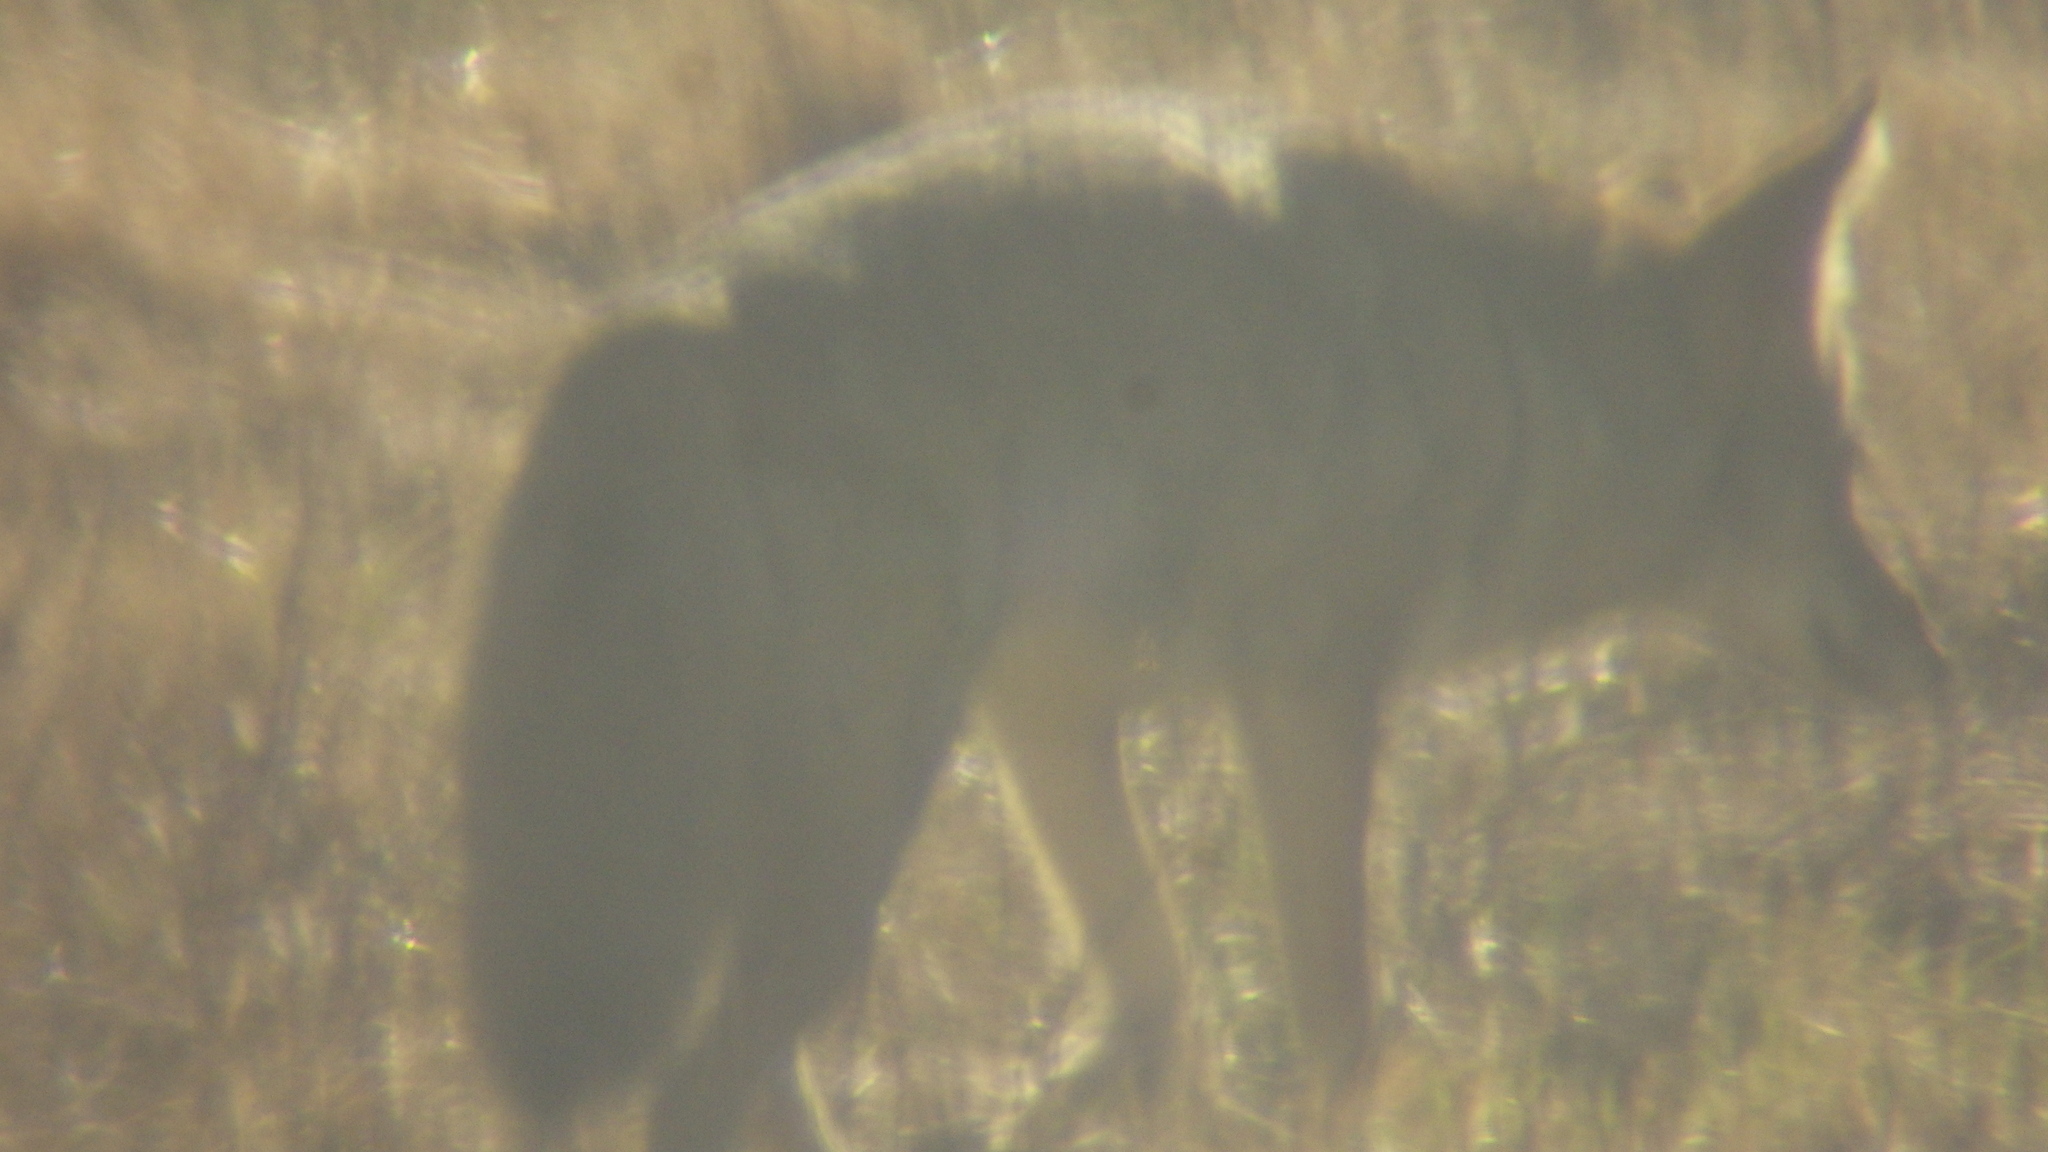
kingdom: Animalia
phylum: Chordata
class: Mammalia
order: Carnivora
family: Canidae
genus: Canis
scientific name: Canis latrans
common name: Coyote
